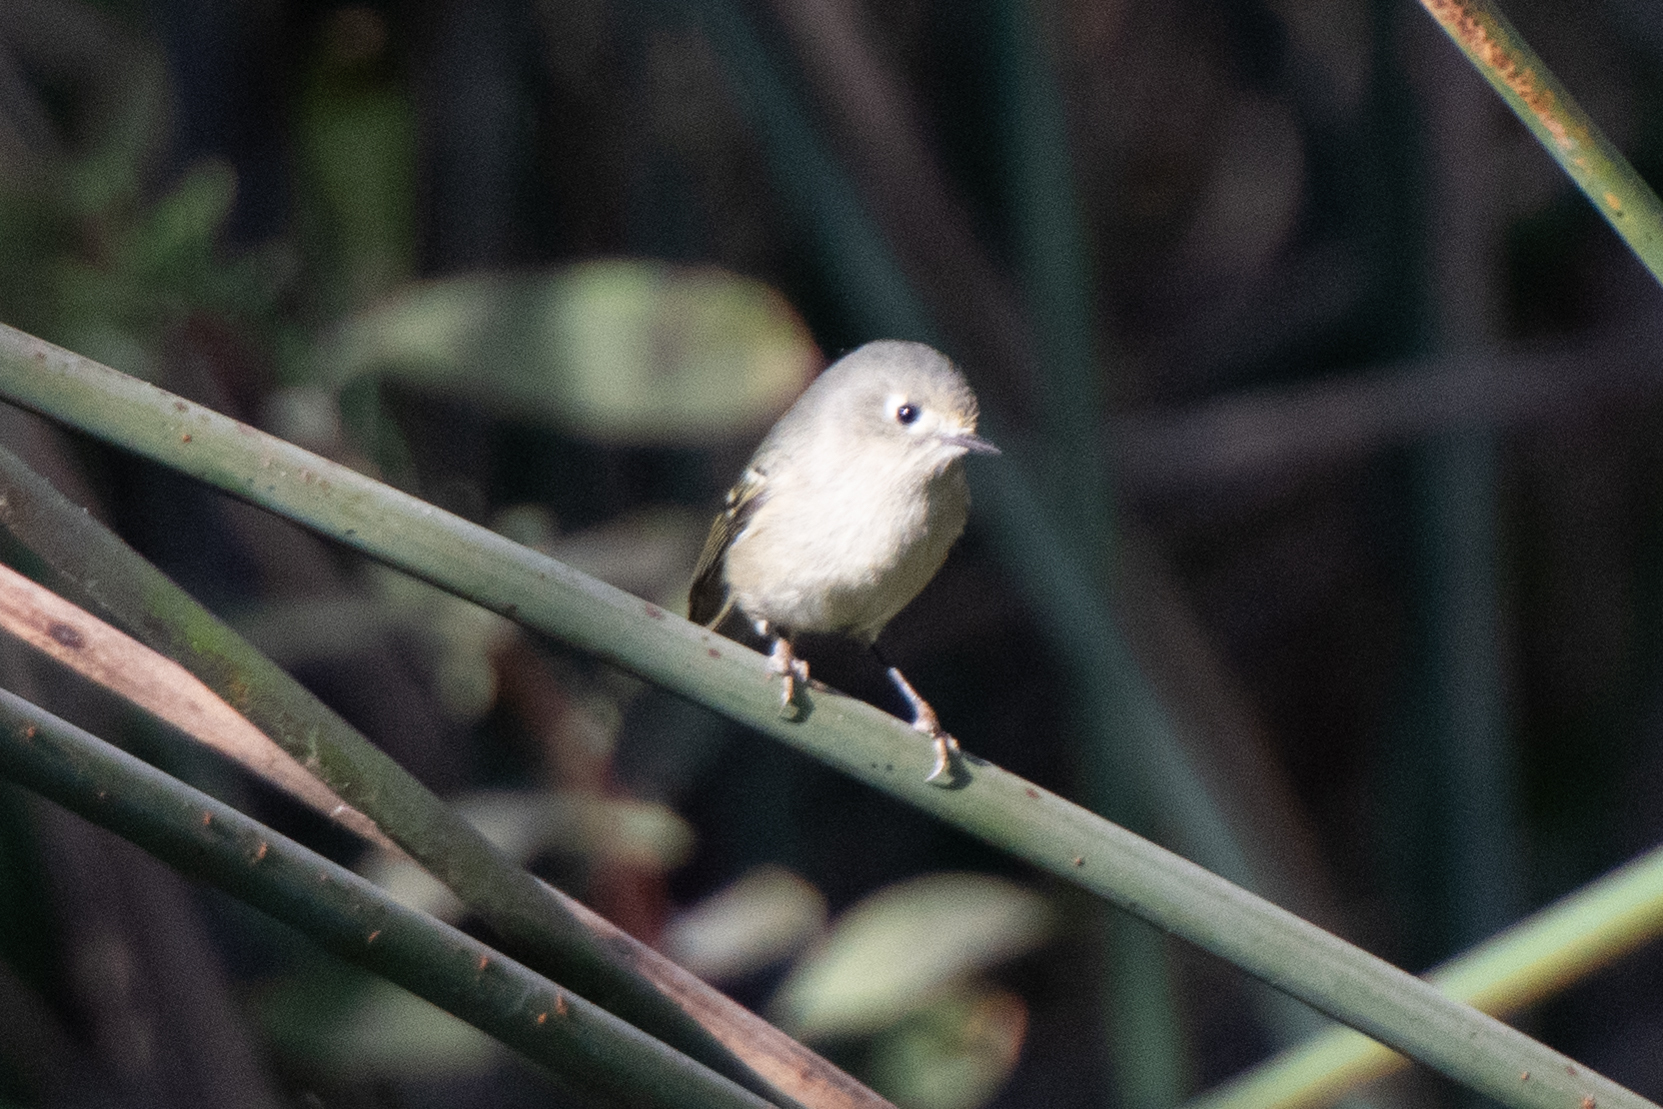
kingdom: Animalia
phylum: Chordata
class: Aves
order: Passeriformes
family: Regulidae
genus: Regulus
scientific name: Regulus calendula
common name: Ruby-crowned kinglet
